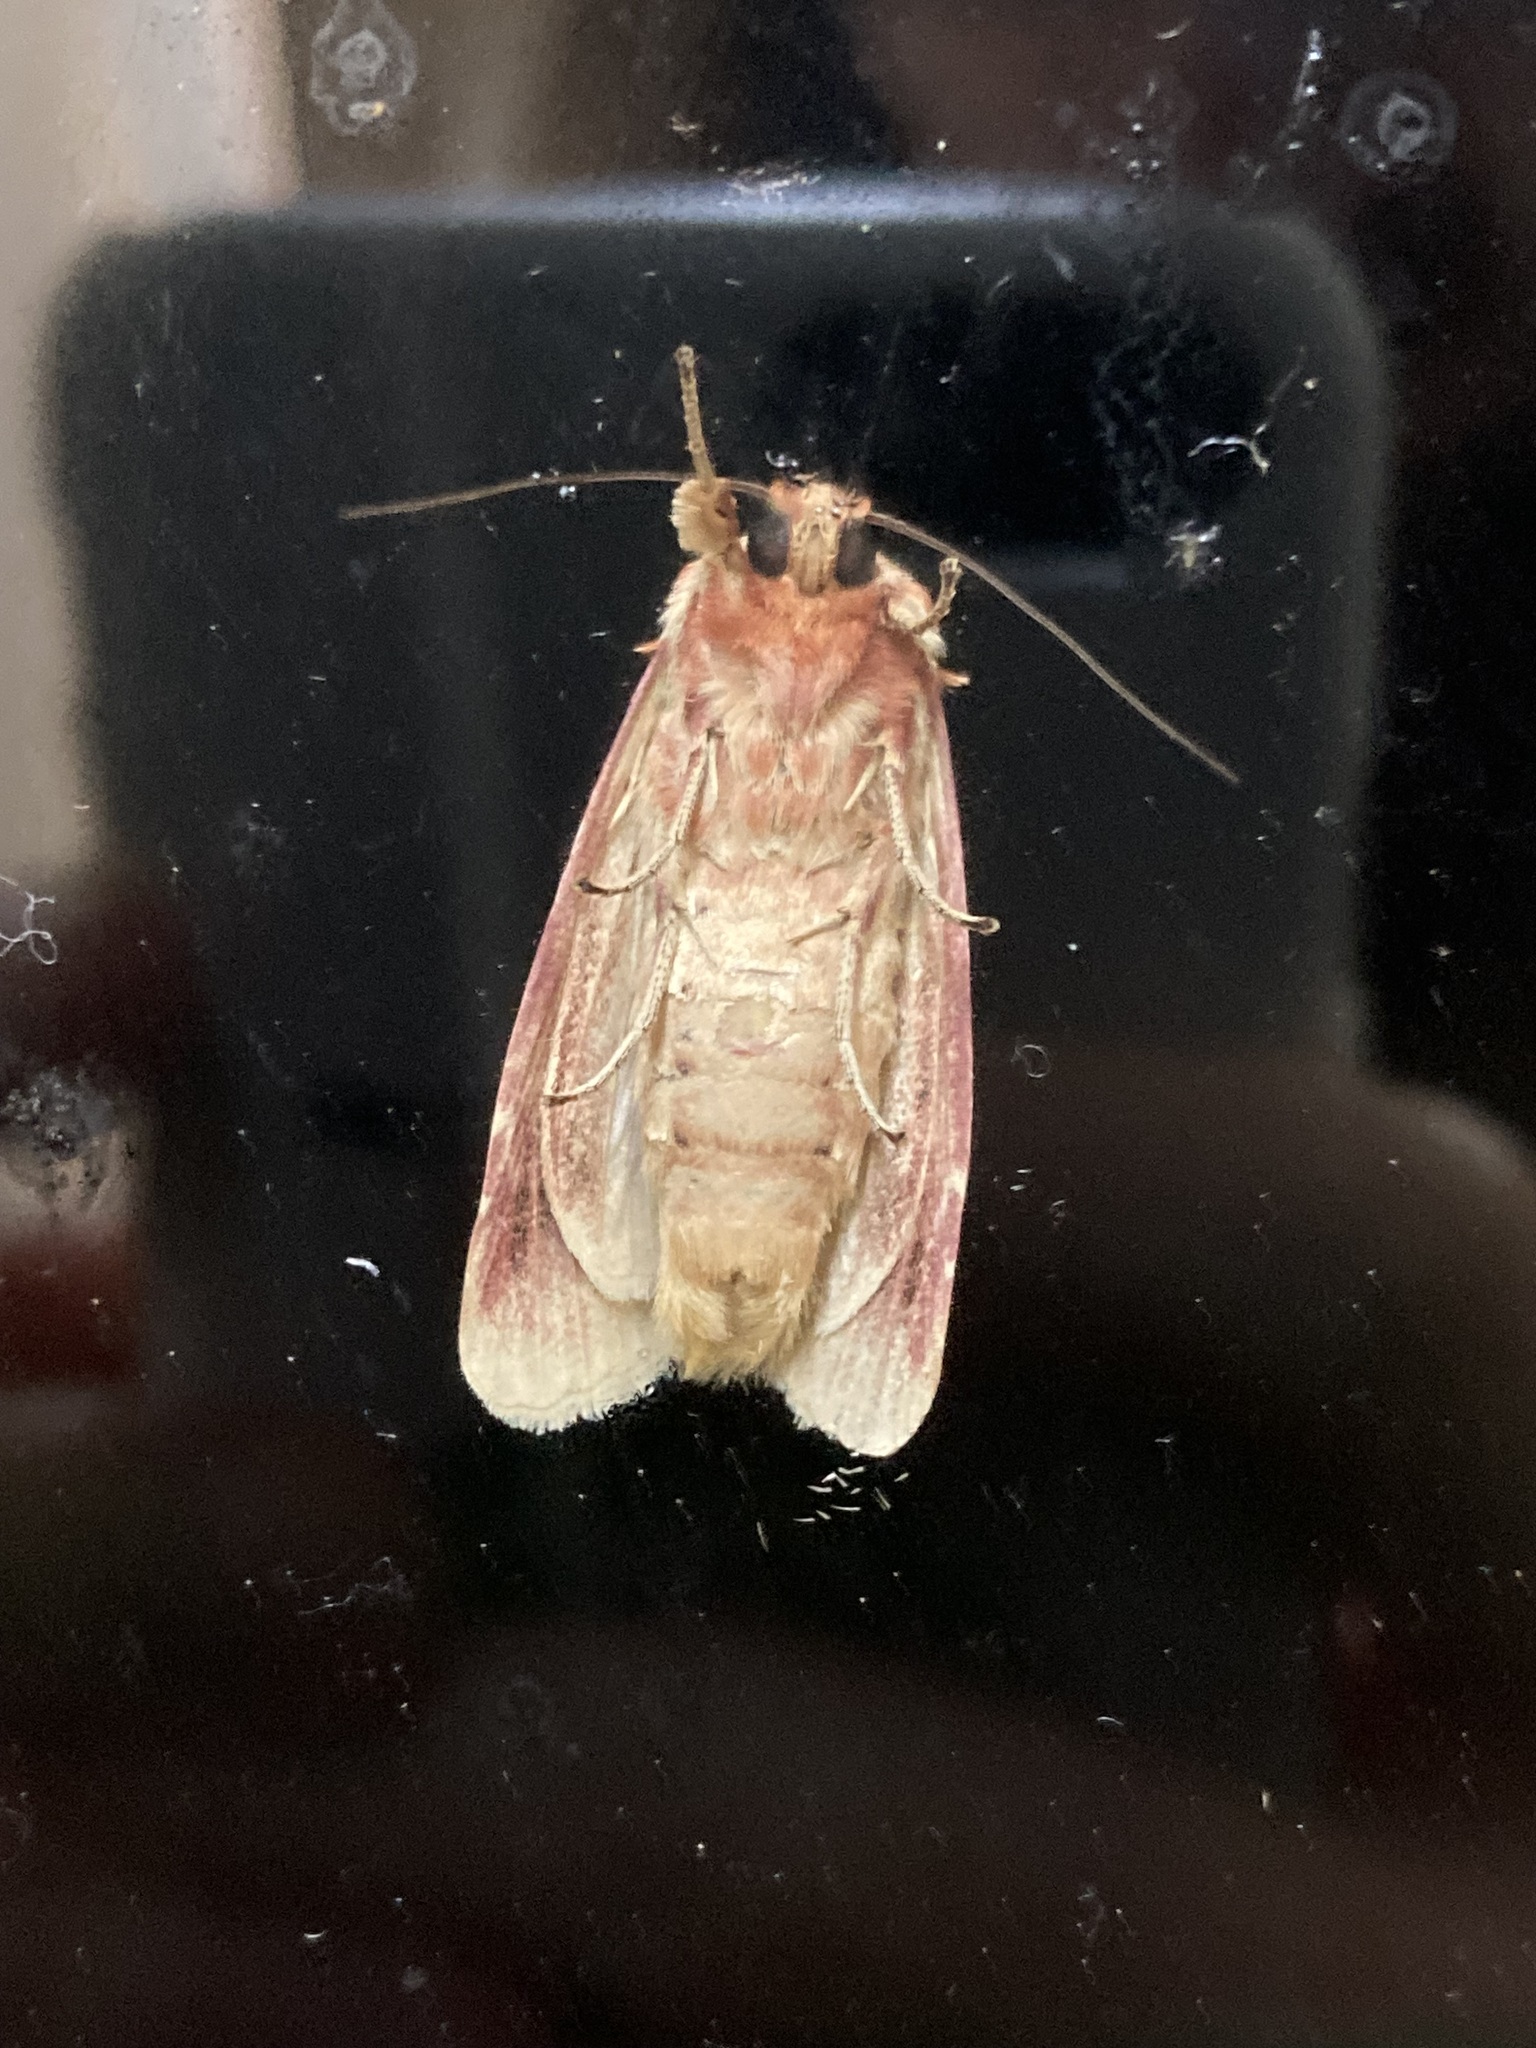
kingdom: Animalia
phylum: Arthropoda
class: Insecta
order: Lepidoptera
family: Noctuidae
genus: Spodoptera
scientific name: Spodoptera picta
